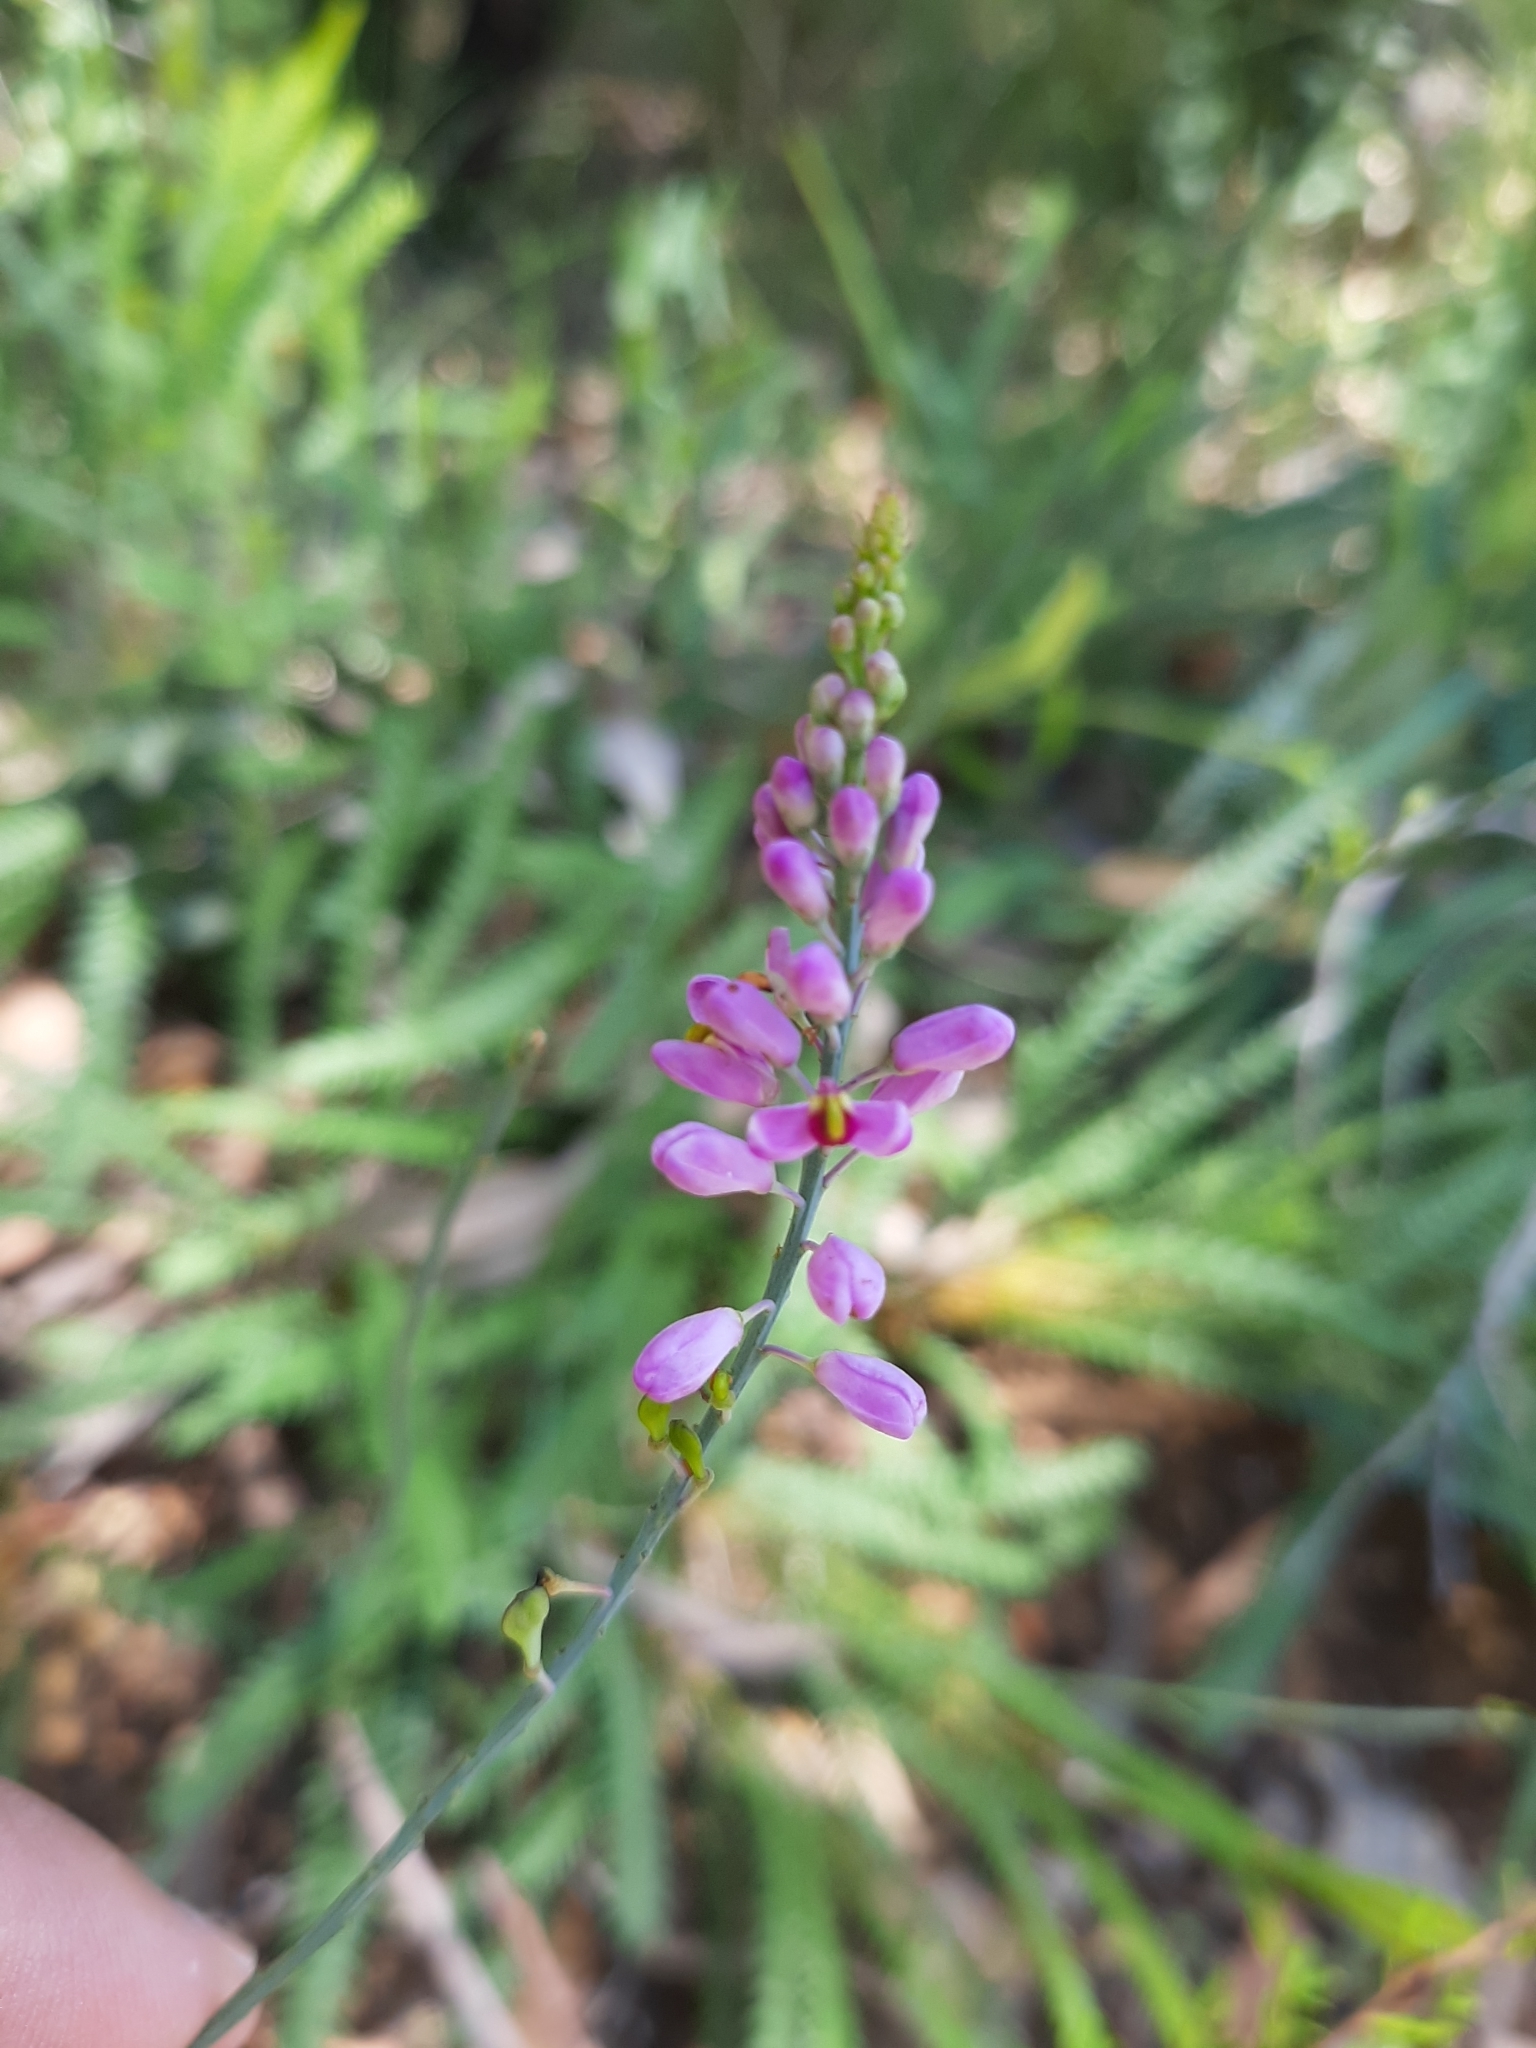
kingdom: Plantae
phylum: Tracheophyta
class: Magnoliopsida
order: Fabales
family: Polygalaceae
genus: Comesperma
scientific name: Comesperma virgatum
